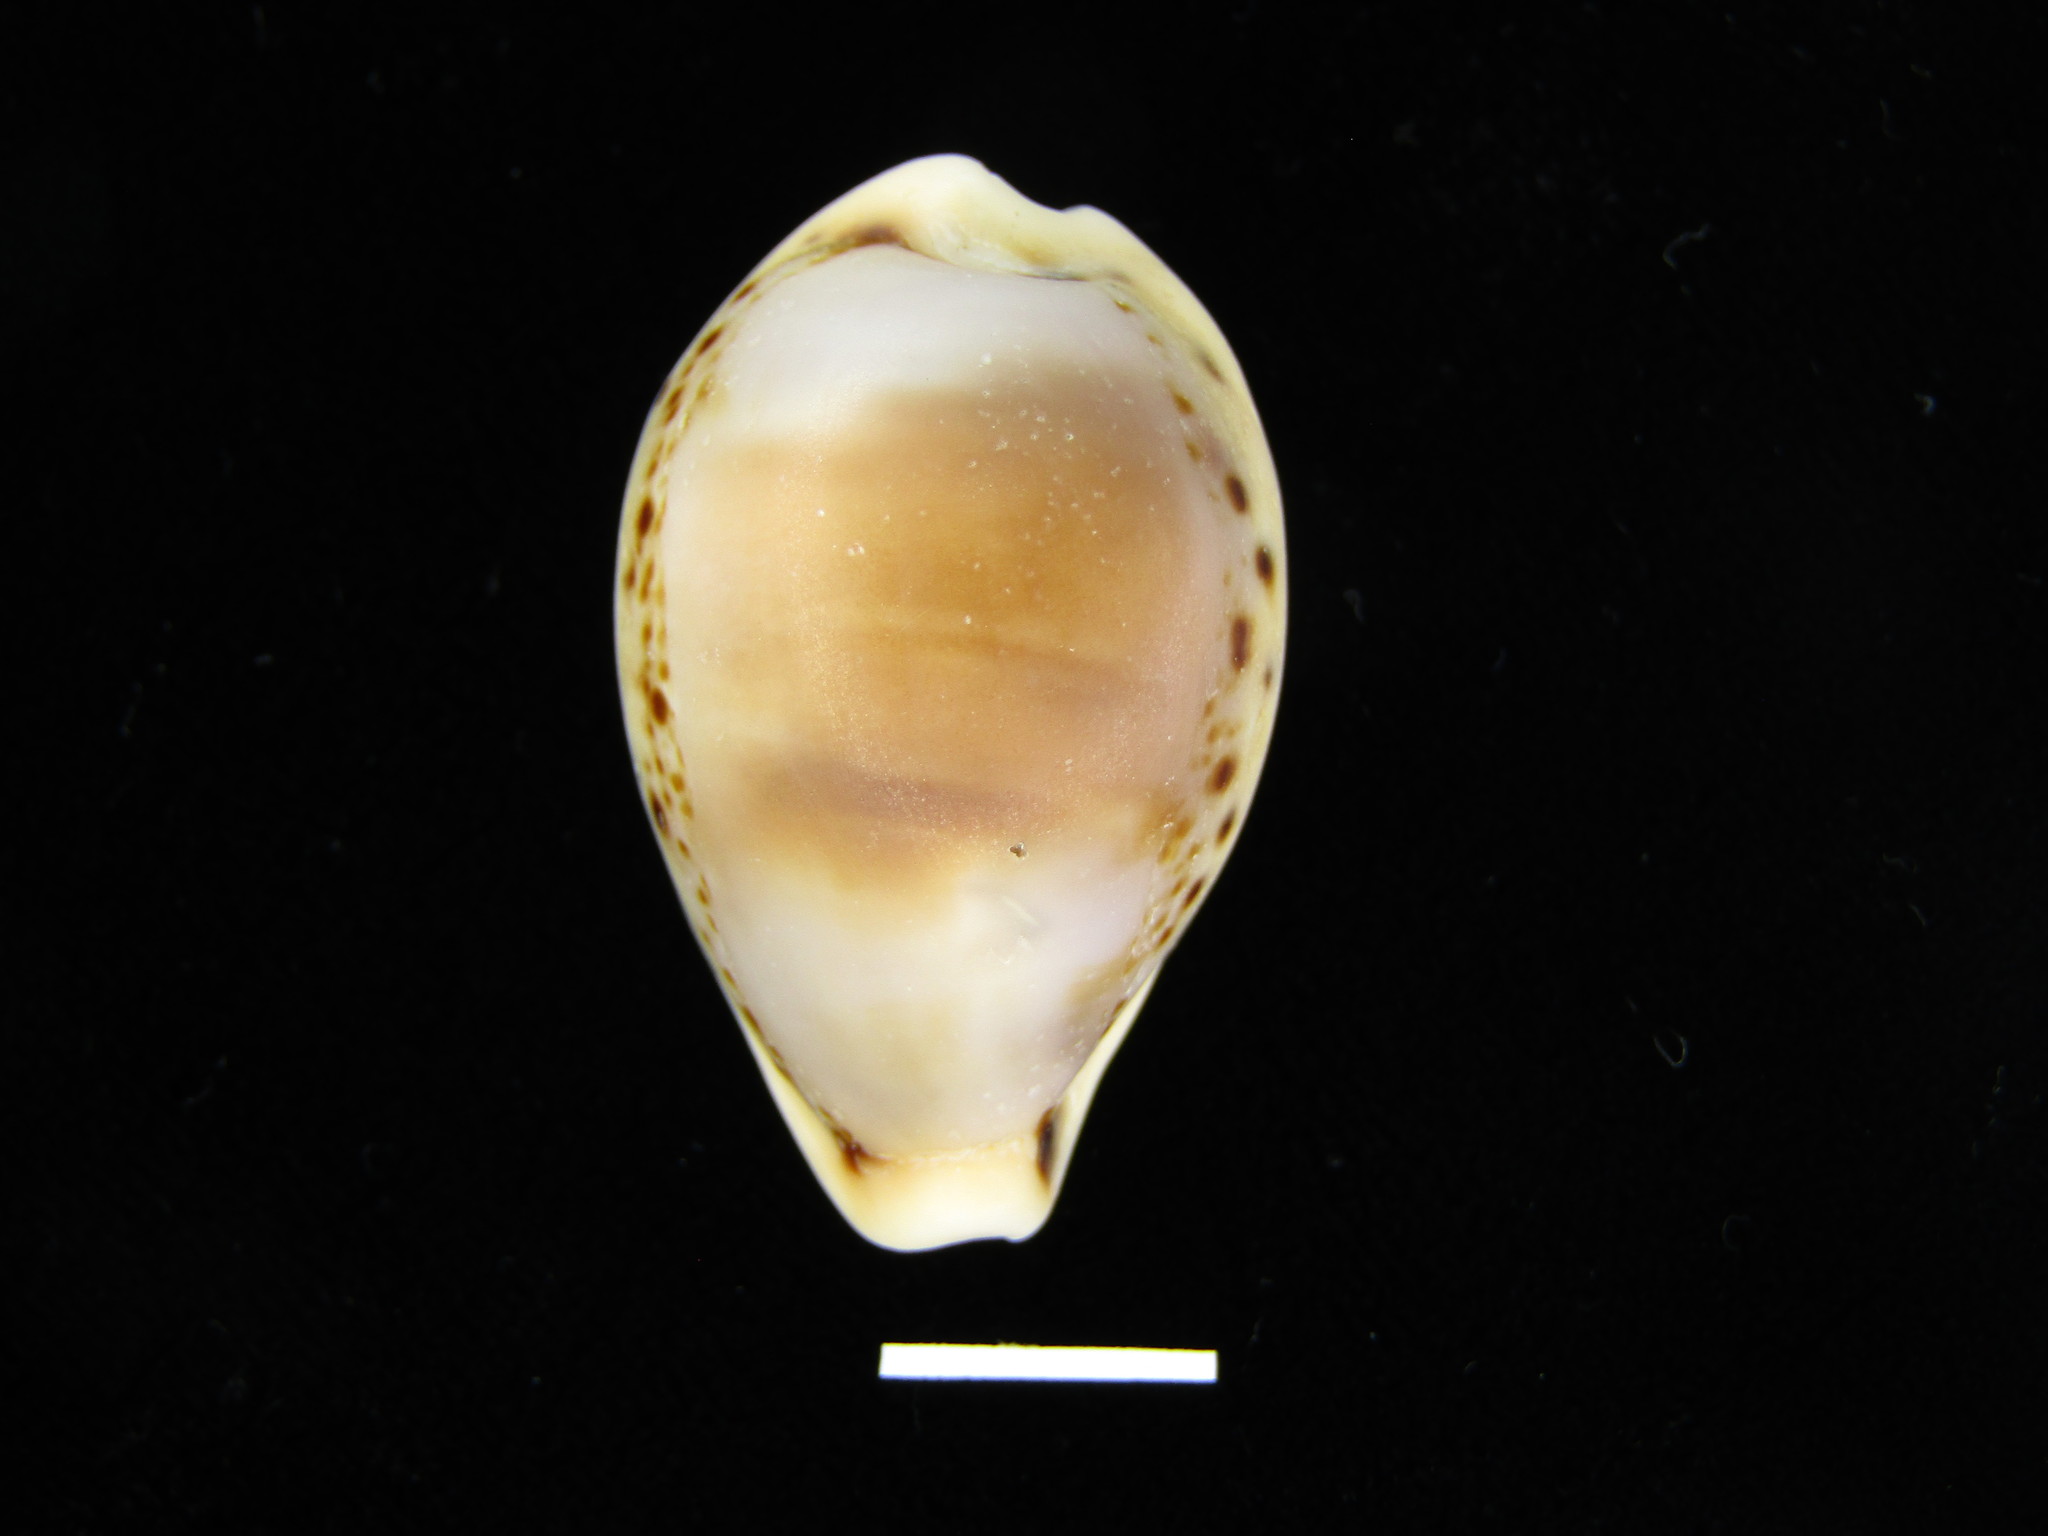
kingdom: Animalia
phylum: Mollusca
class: Gastropoda
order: Littorinimorpha
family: Cypraeidae
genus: Paradusta
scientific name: Paradusta hungerfordi
